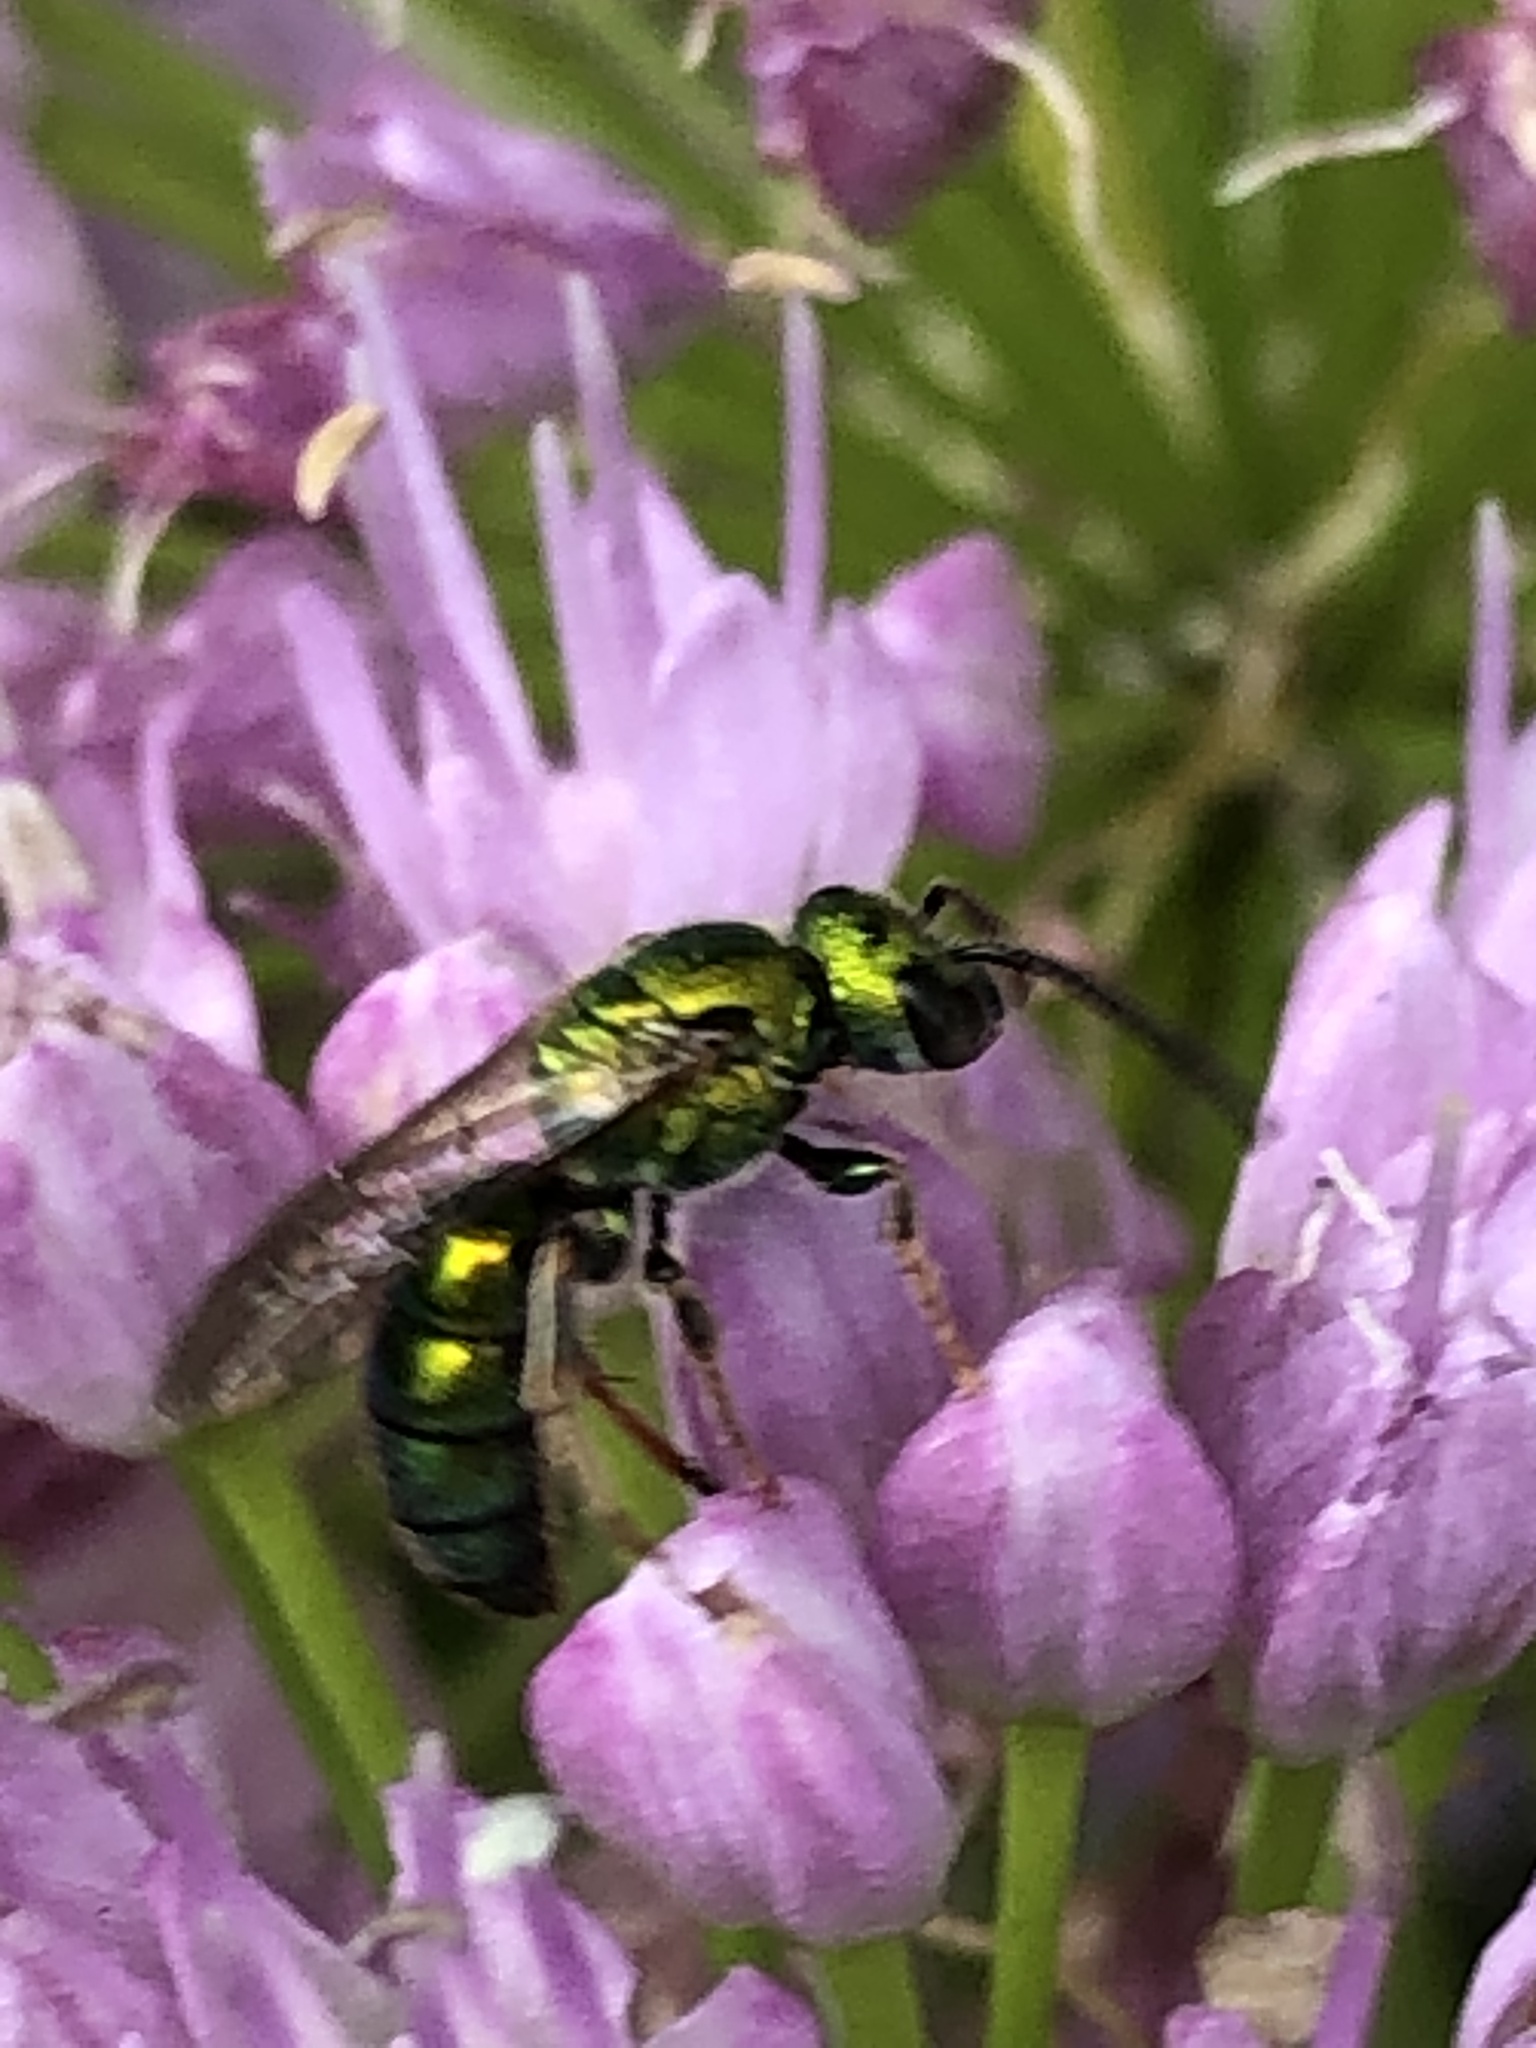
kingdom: Animalia
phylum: Arthropoda
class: Insecta
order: Hymenoptera
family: Halictidae
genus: Augochlora
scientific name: Augochlora pura
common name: Pure green sweat bee
